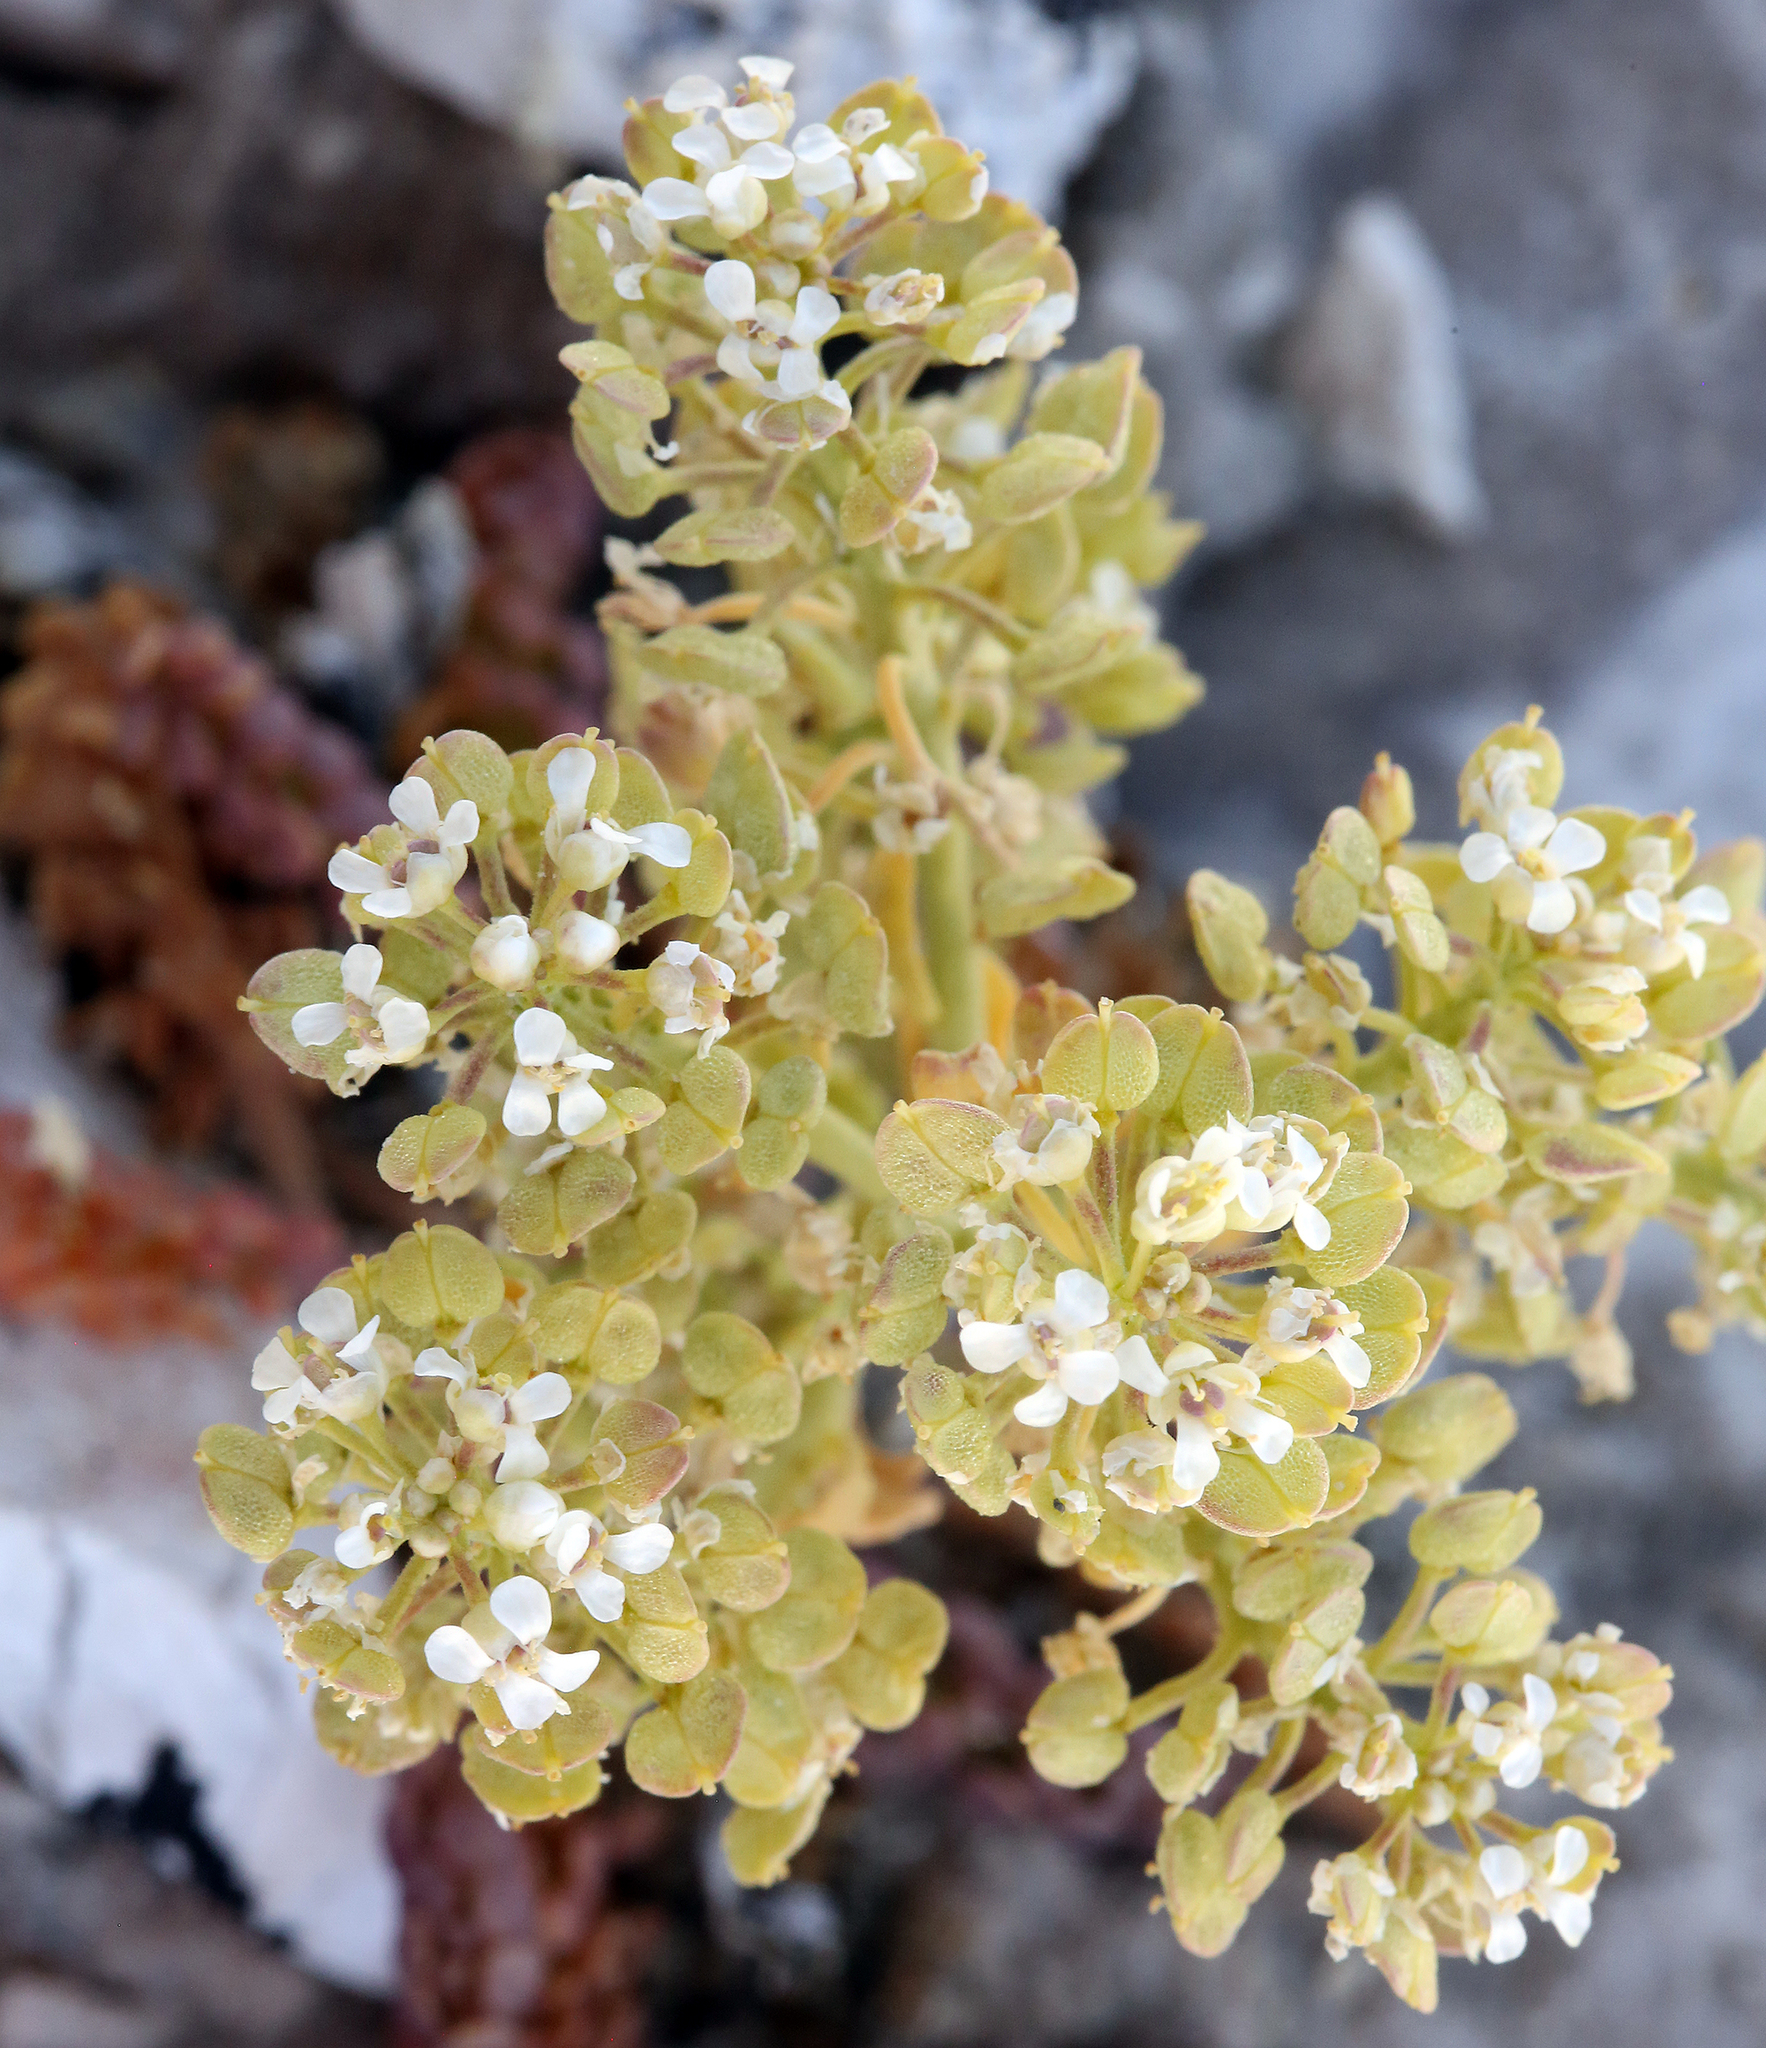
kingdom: Plantae
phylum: Tracheophyta
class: Magnoliopsida
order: Brassicales
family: Brassicaceae
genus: Lepidium
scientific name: Lepidium montanum
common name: Mountain pepperplant
